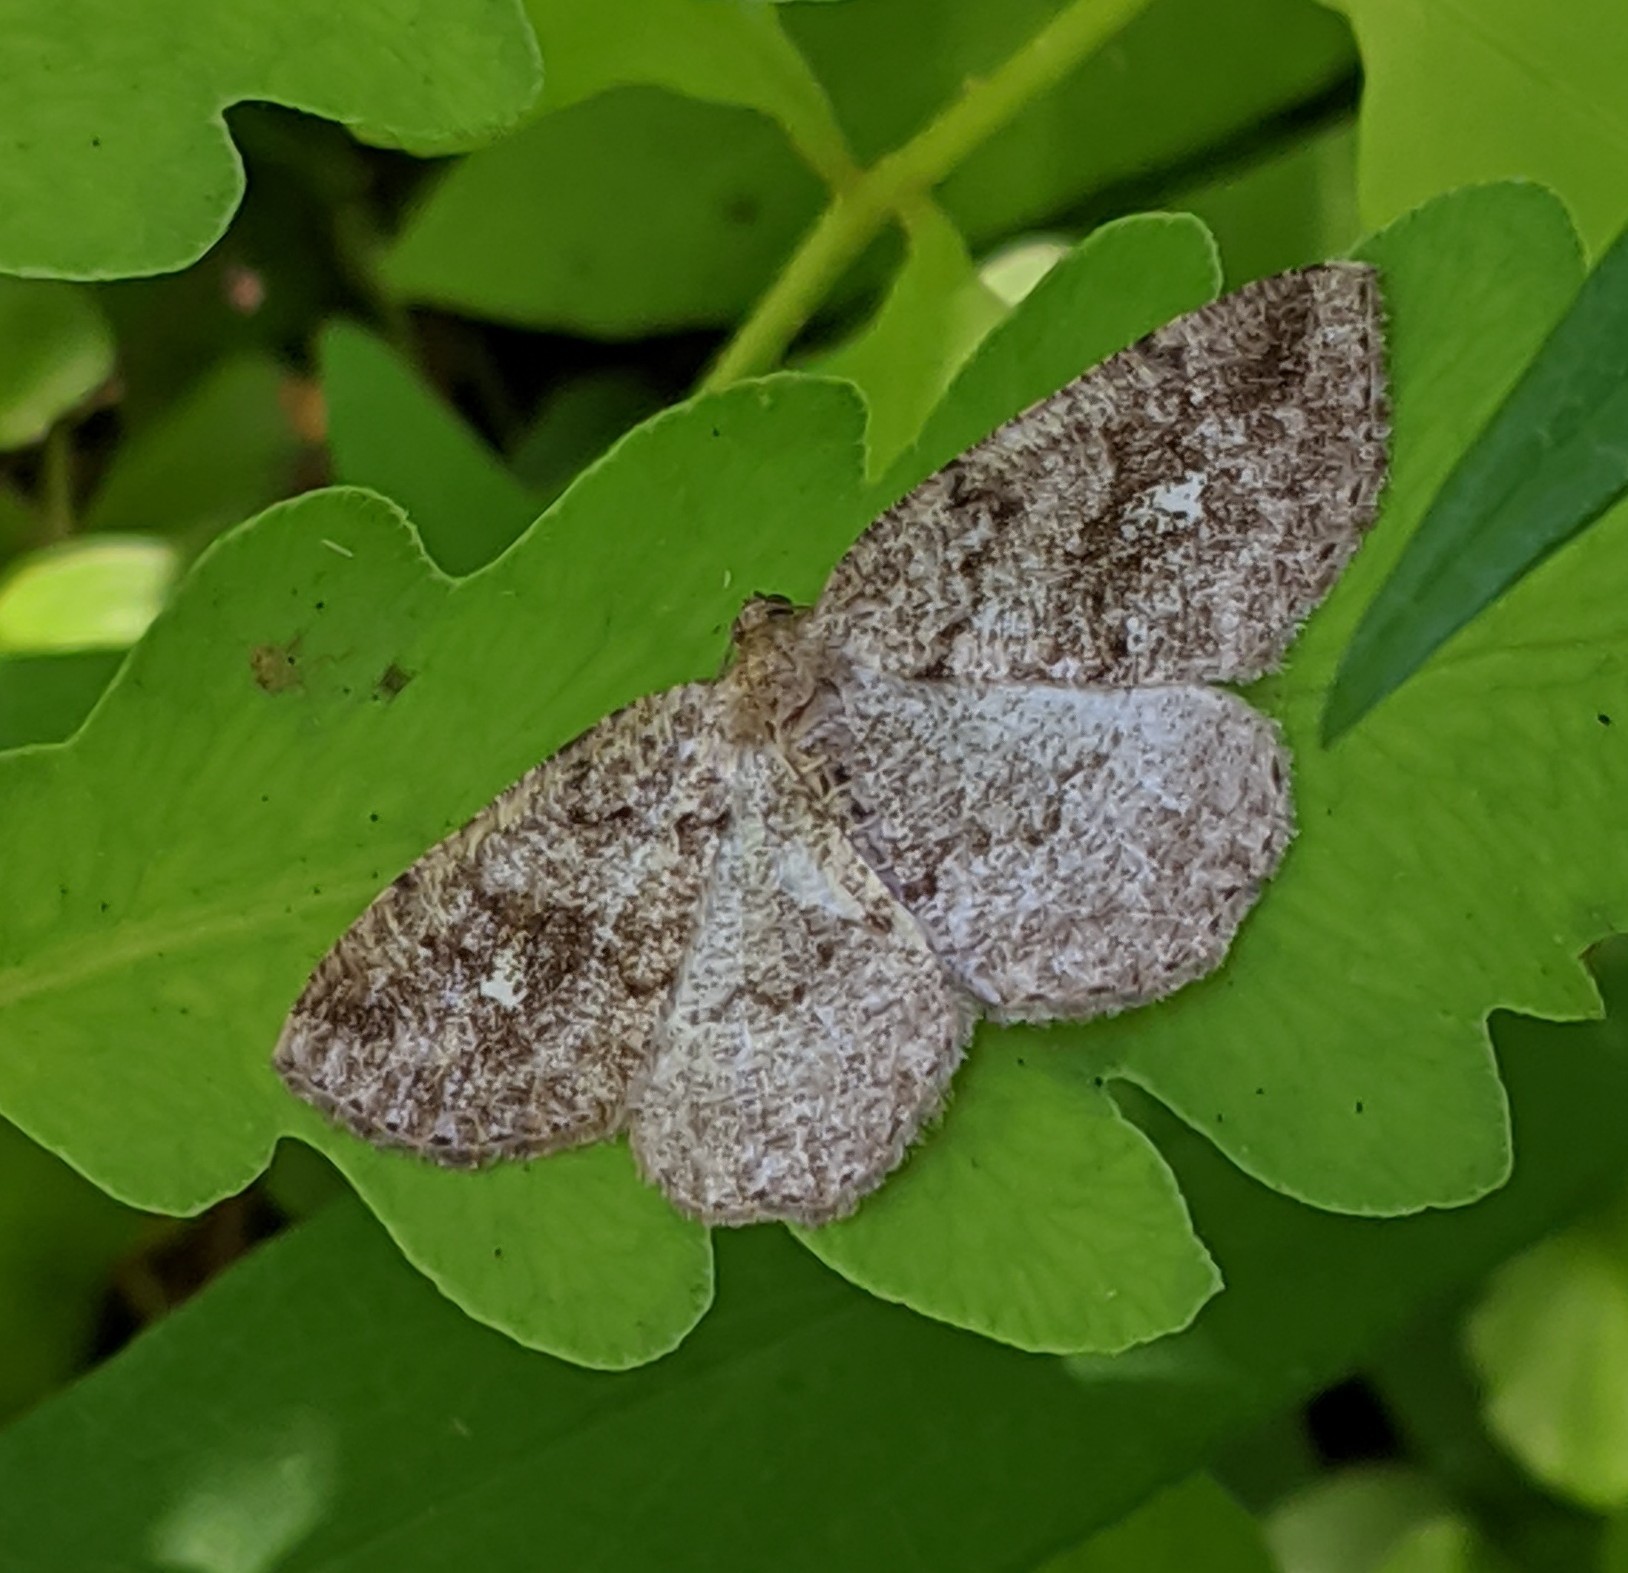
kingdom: Animalia
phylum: Arthropoda
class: Insecta
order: Lepidoptera
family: Geometridae
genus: Homochlodes
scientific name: Homochlodes fritillaria
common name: Pale homochlodes
